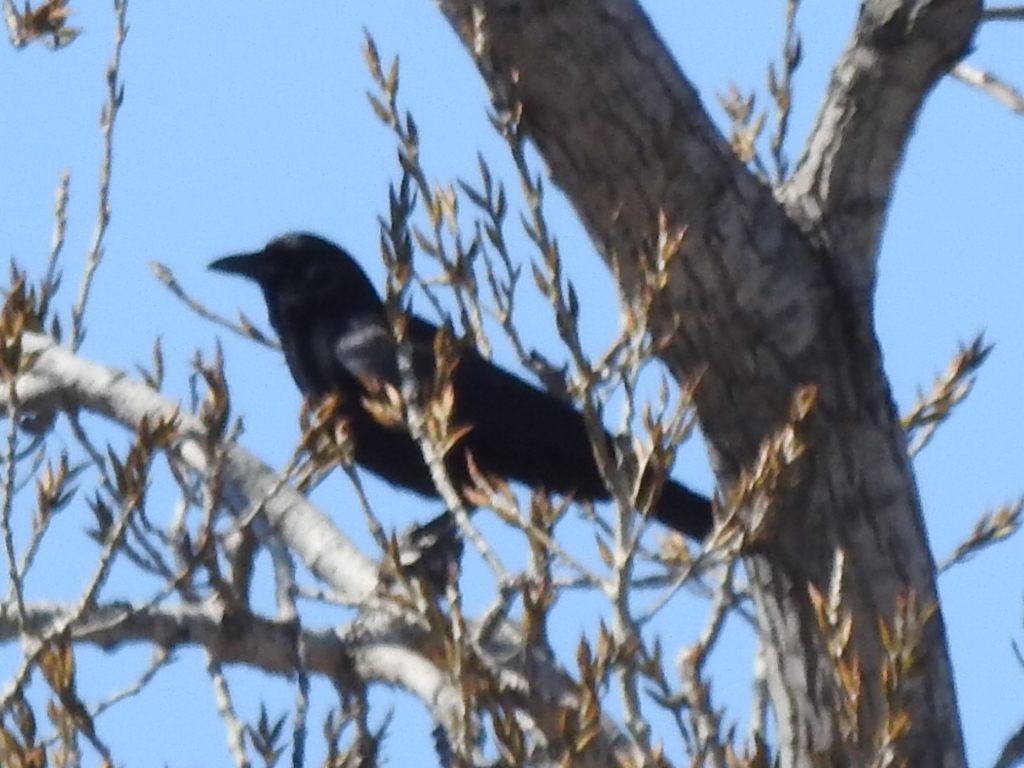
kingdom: Animalia
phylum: Chordata
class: Aves
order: Passeriformes
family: Corvidae
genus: Corvus
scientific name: Corvus brachyrhynchos
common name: American crow
